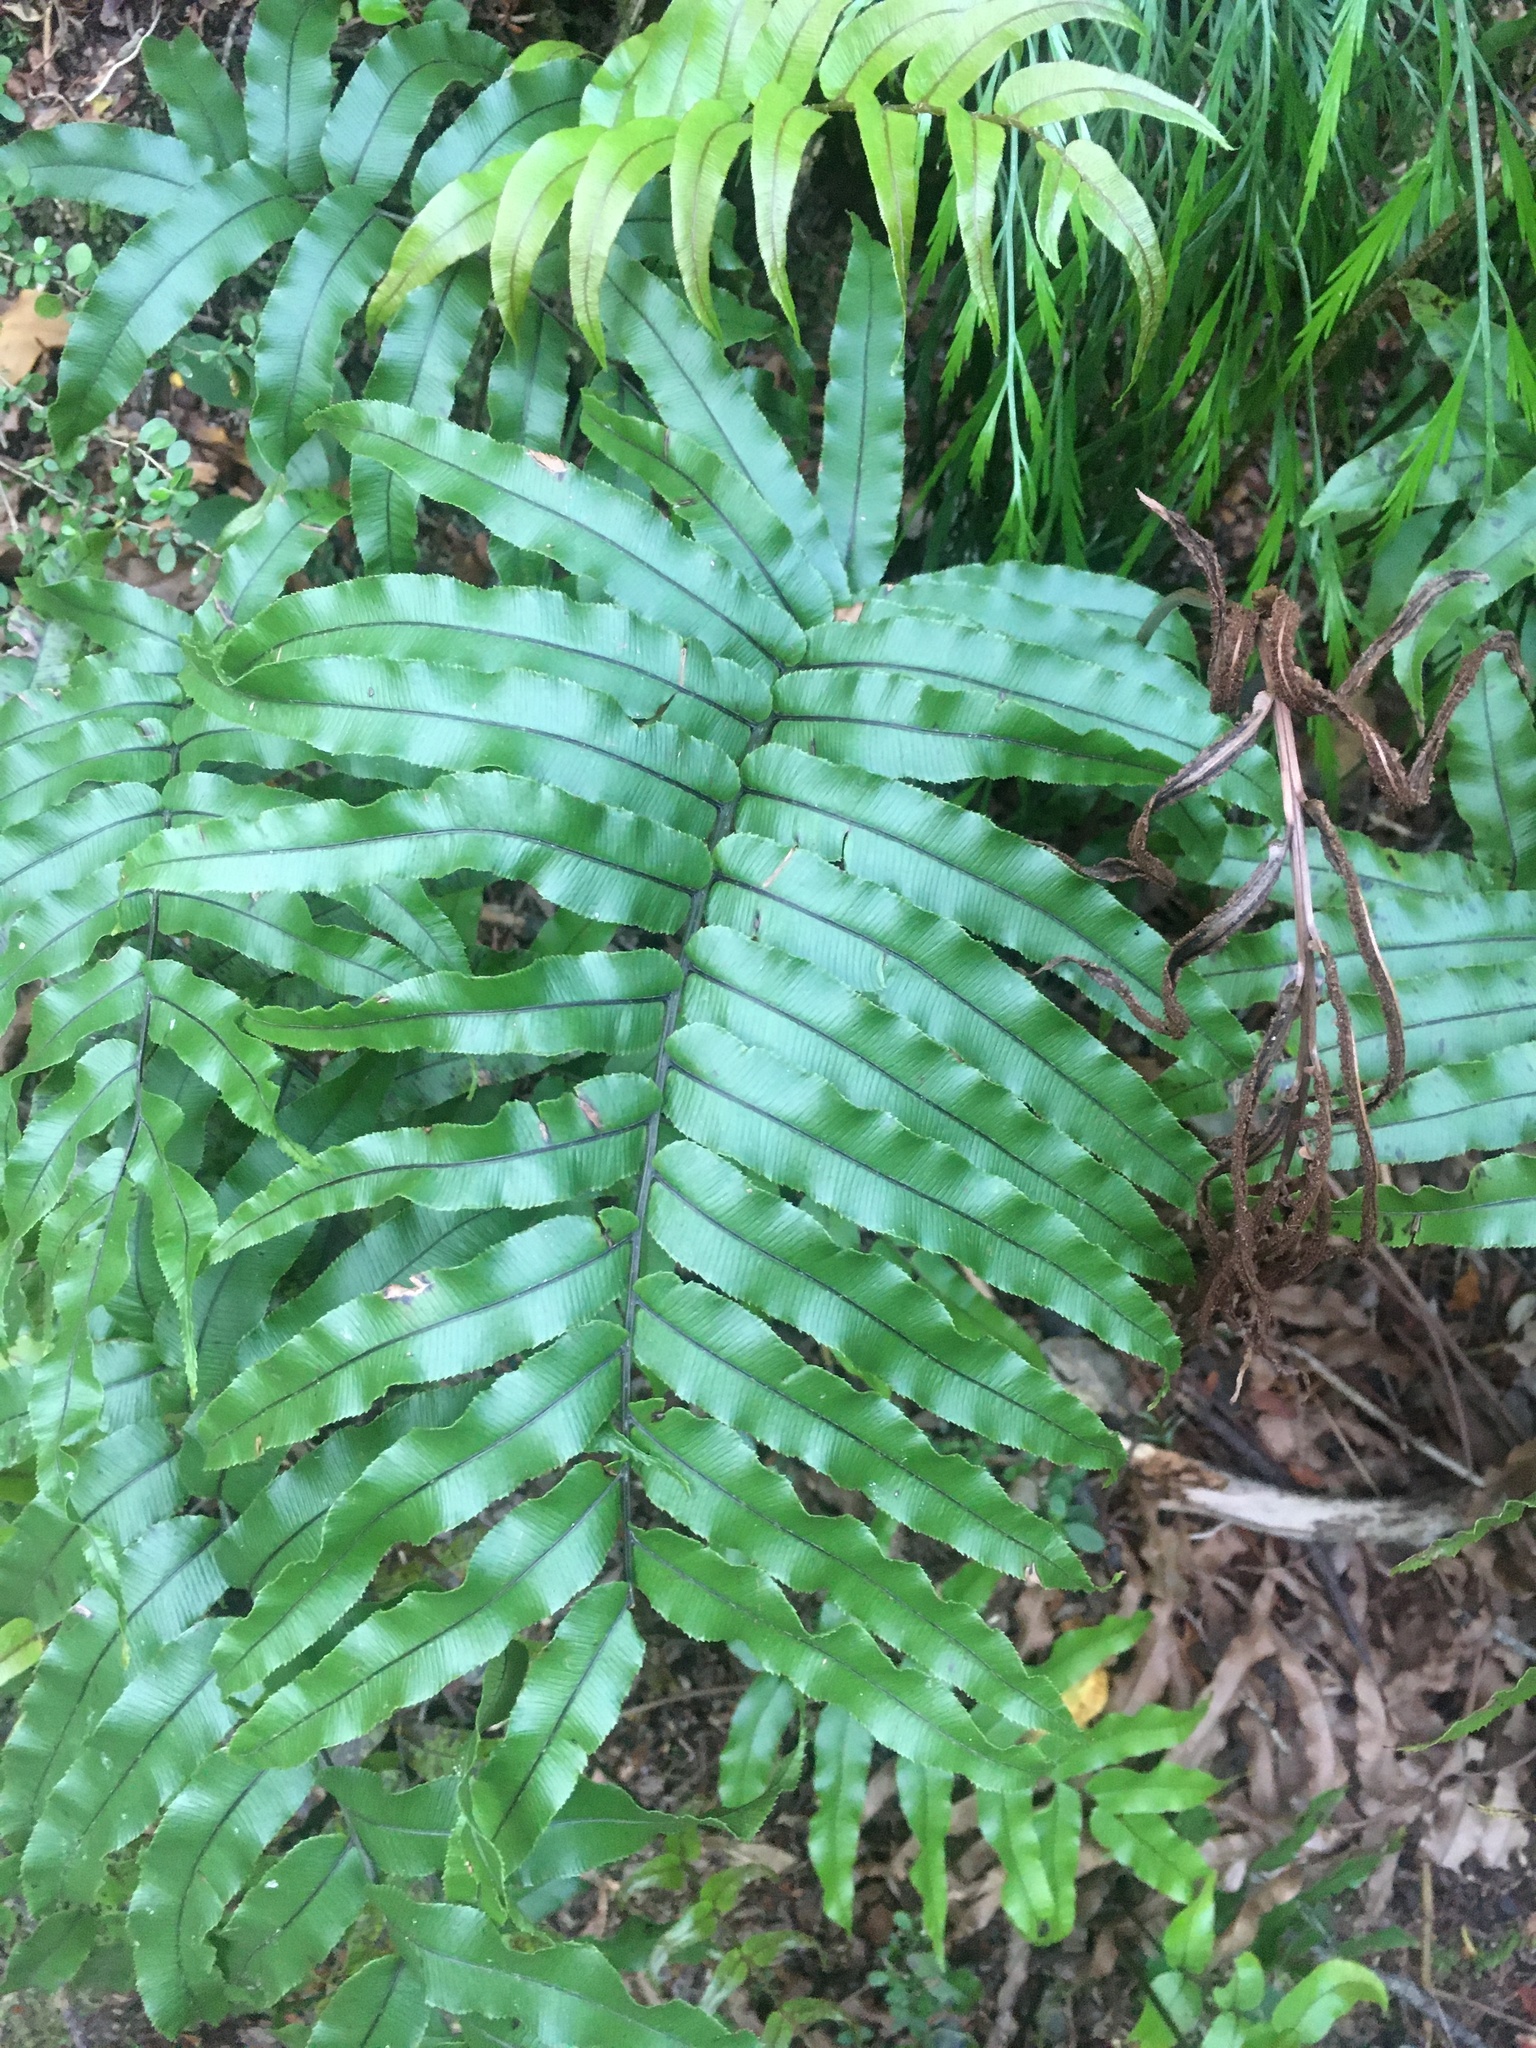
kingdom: Plantae
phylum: Tracheophyta
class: Polypodiopsida
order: Polypodiales
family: Blechnaceae
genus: Parablechnum
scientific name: Parablechnum montanum
